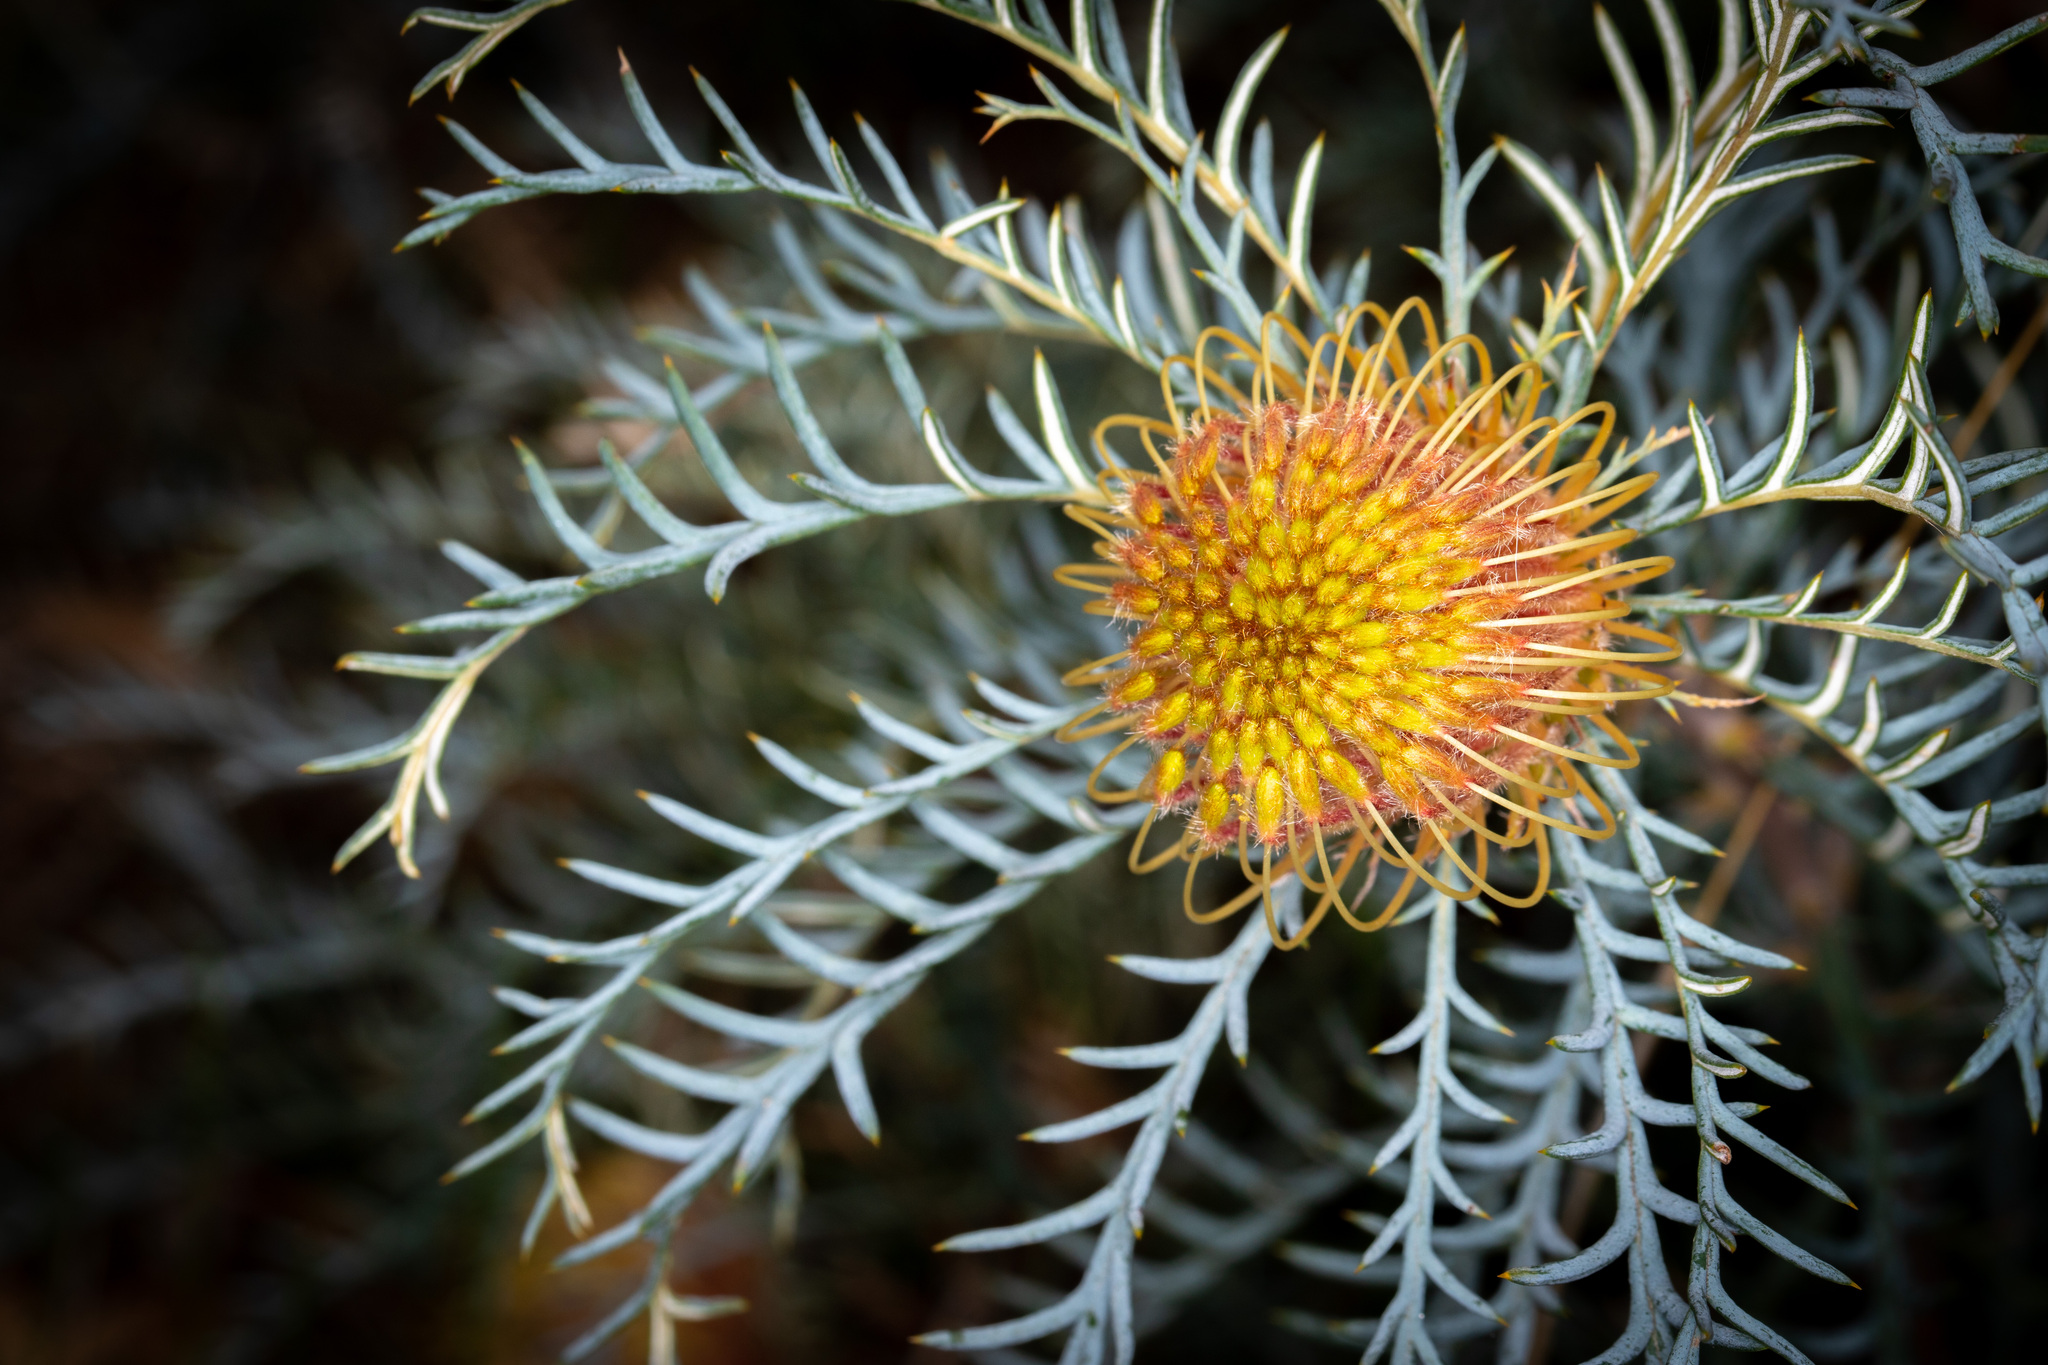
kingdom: Plantae
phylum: Tracheophyta
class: Magnoliopsida
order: Proteales
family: Proteaceae
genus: Banksia
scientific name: Banksia fraseri
